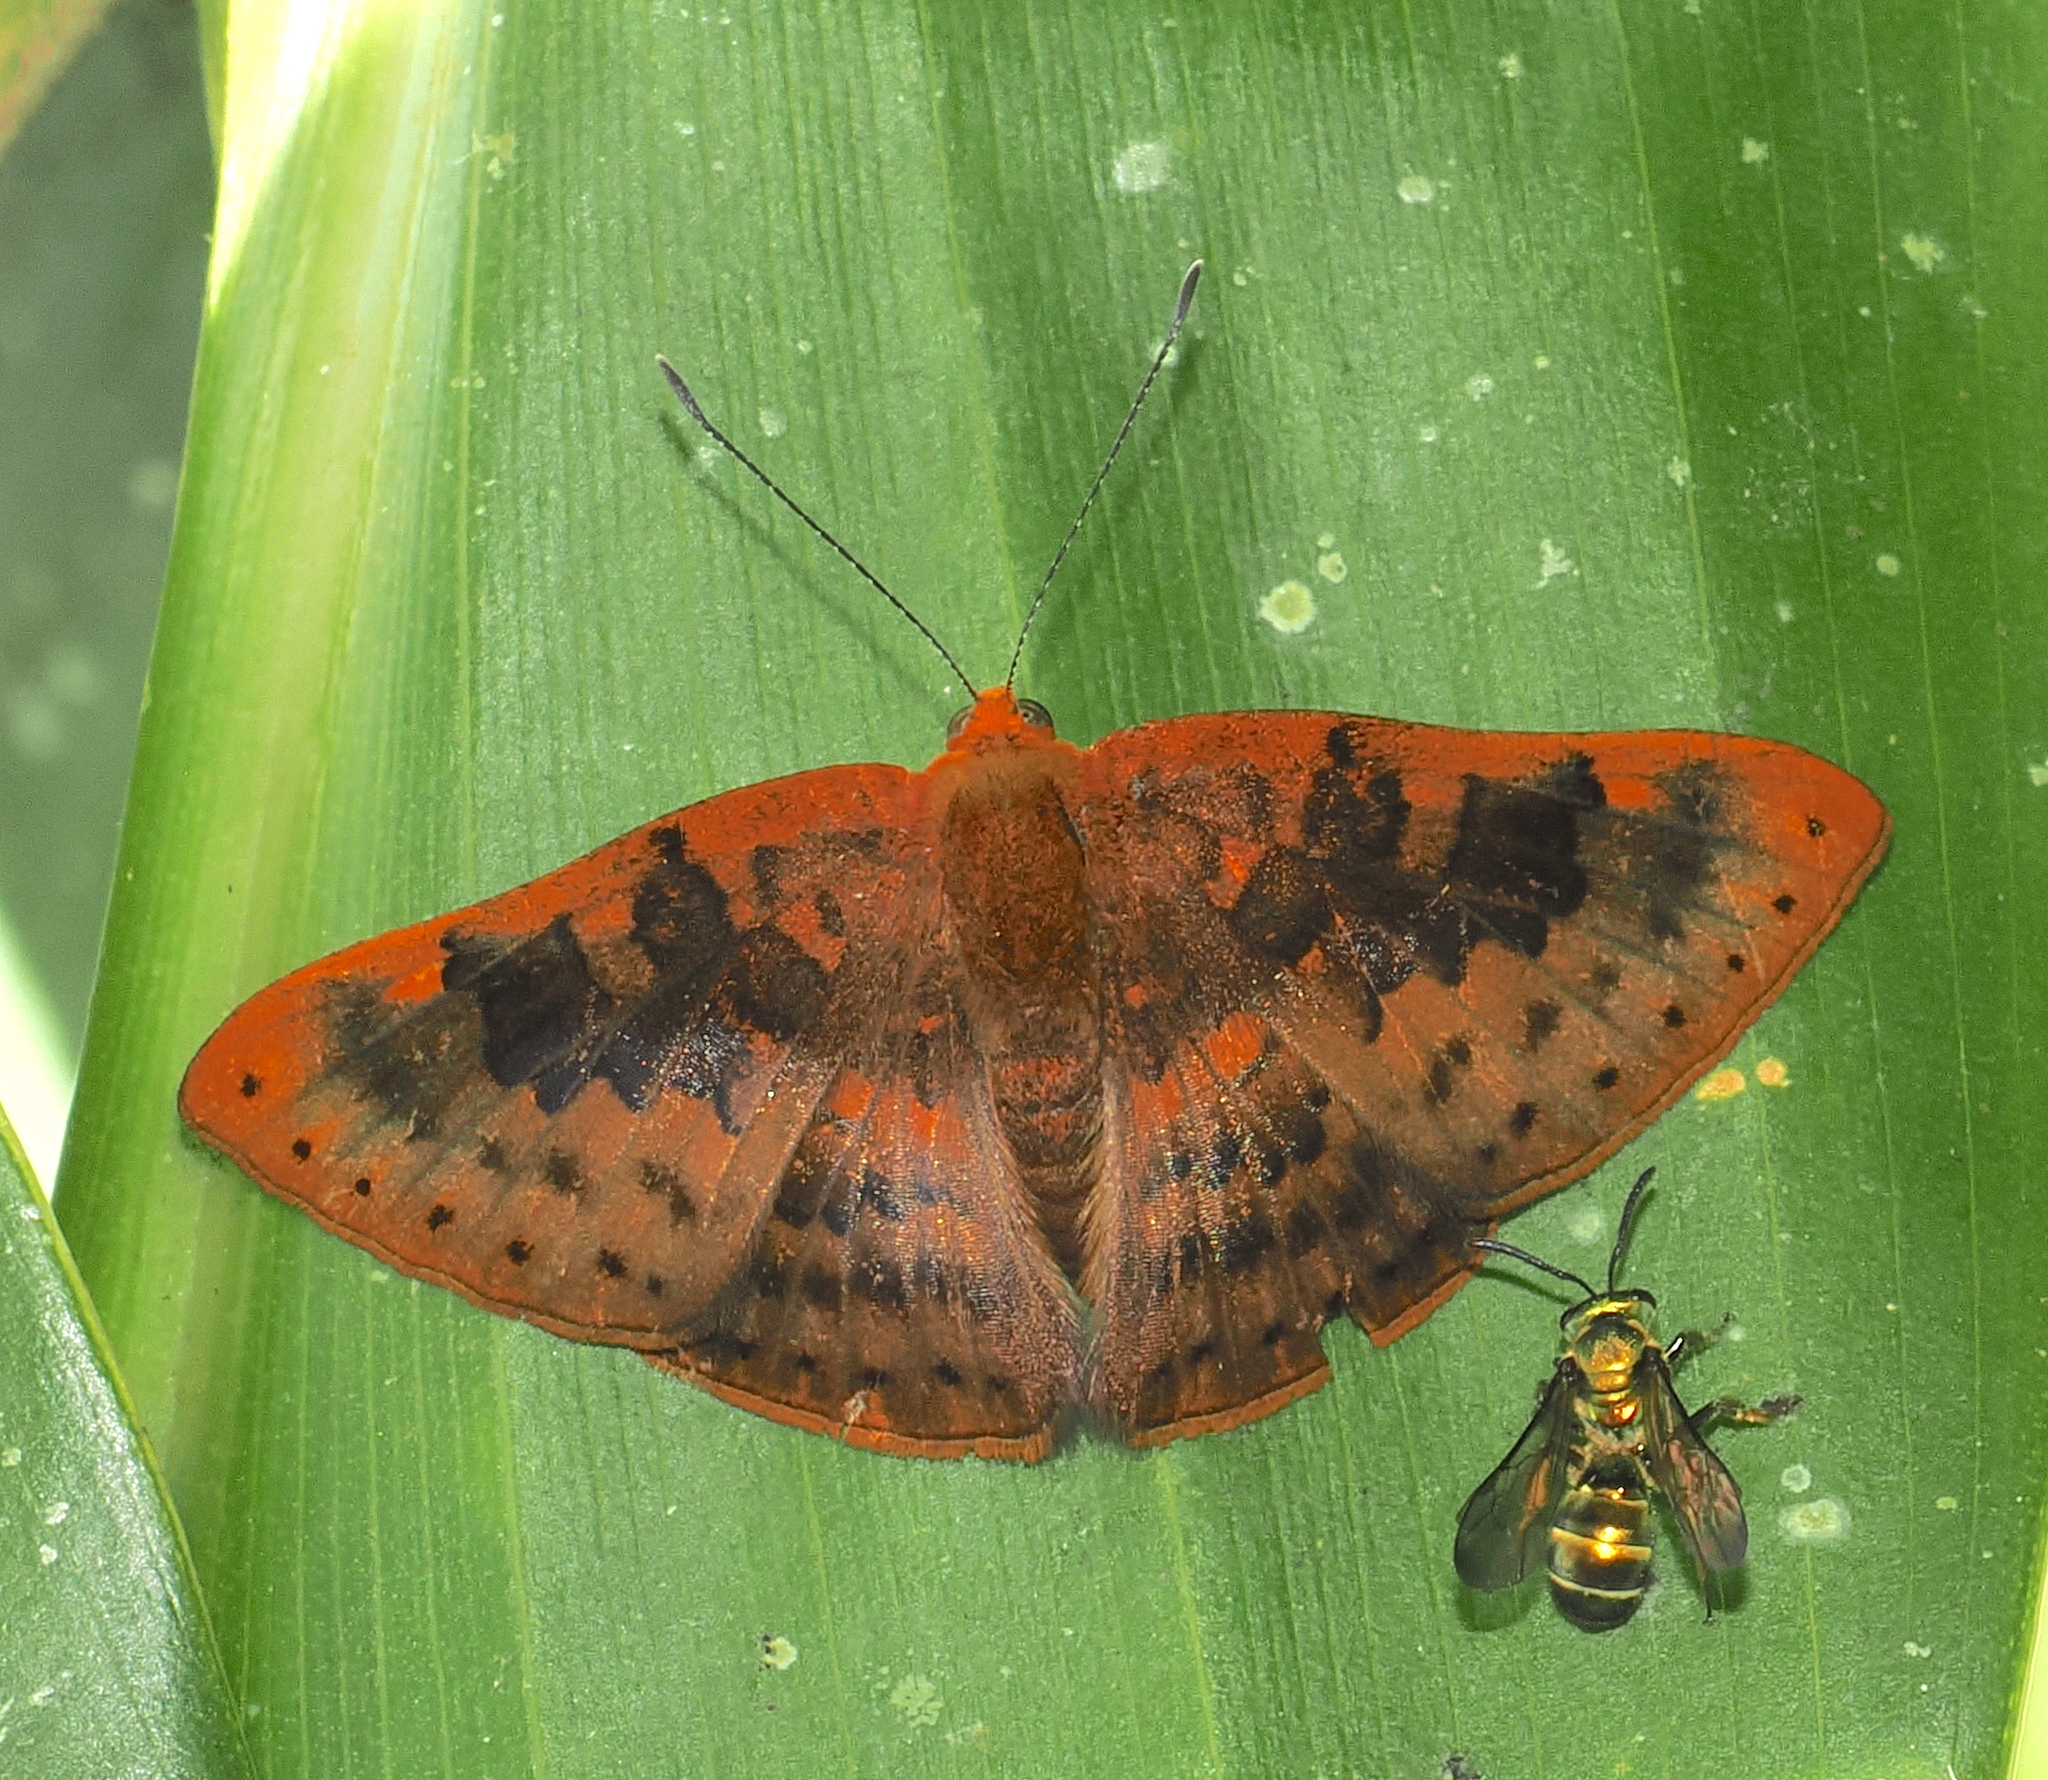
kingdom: Animalia
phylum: Arthropoda
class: Insecta
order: Lepidoptera
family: Lycaenidae
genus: Emesis
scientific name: Emesis brimo
